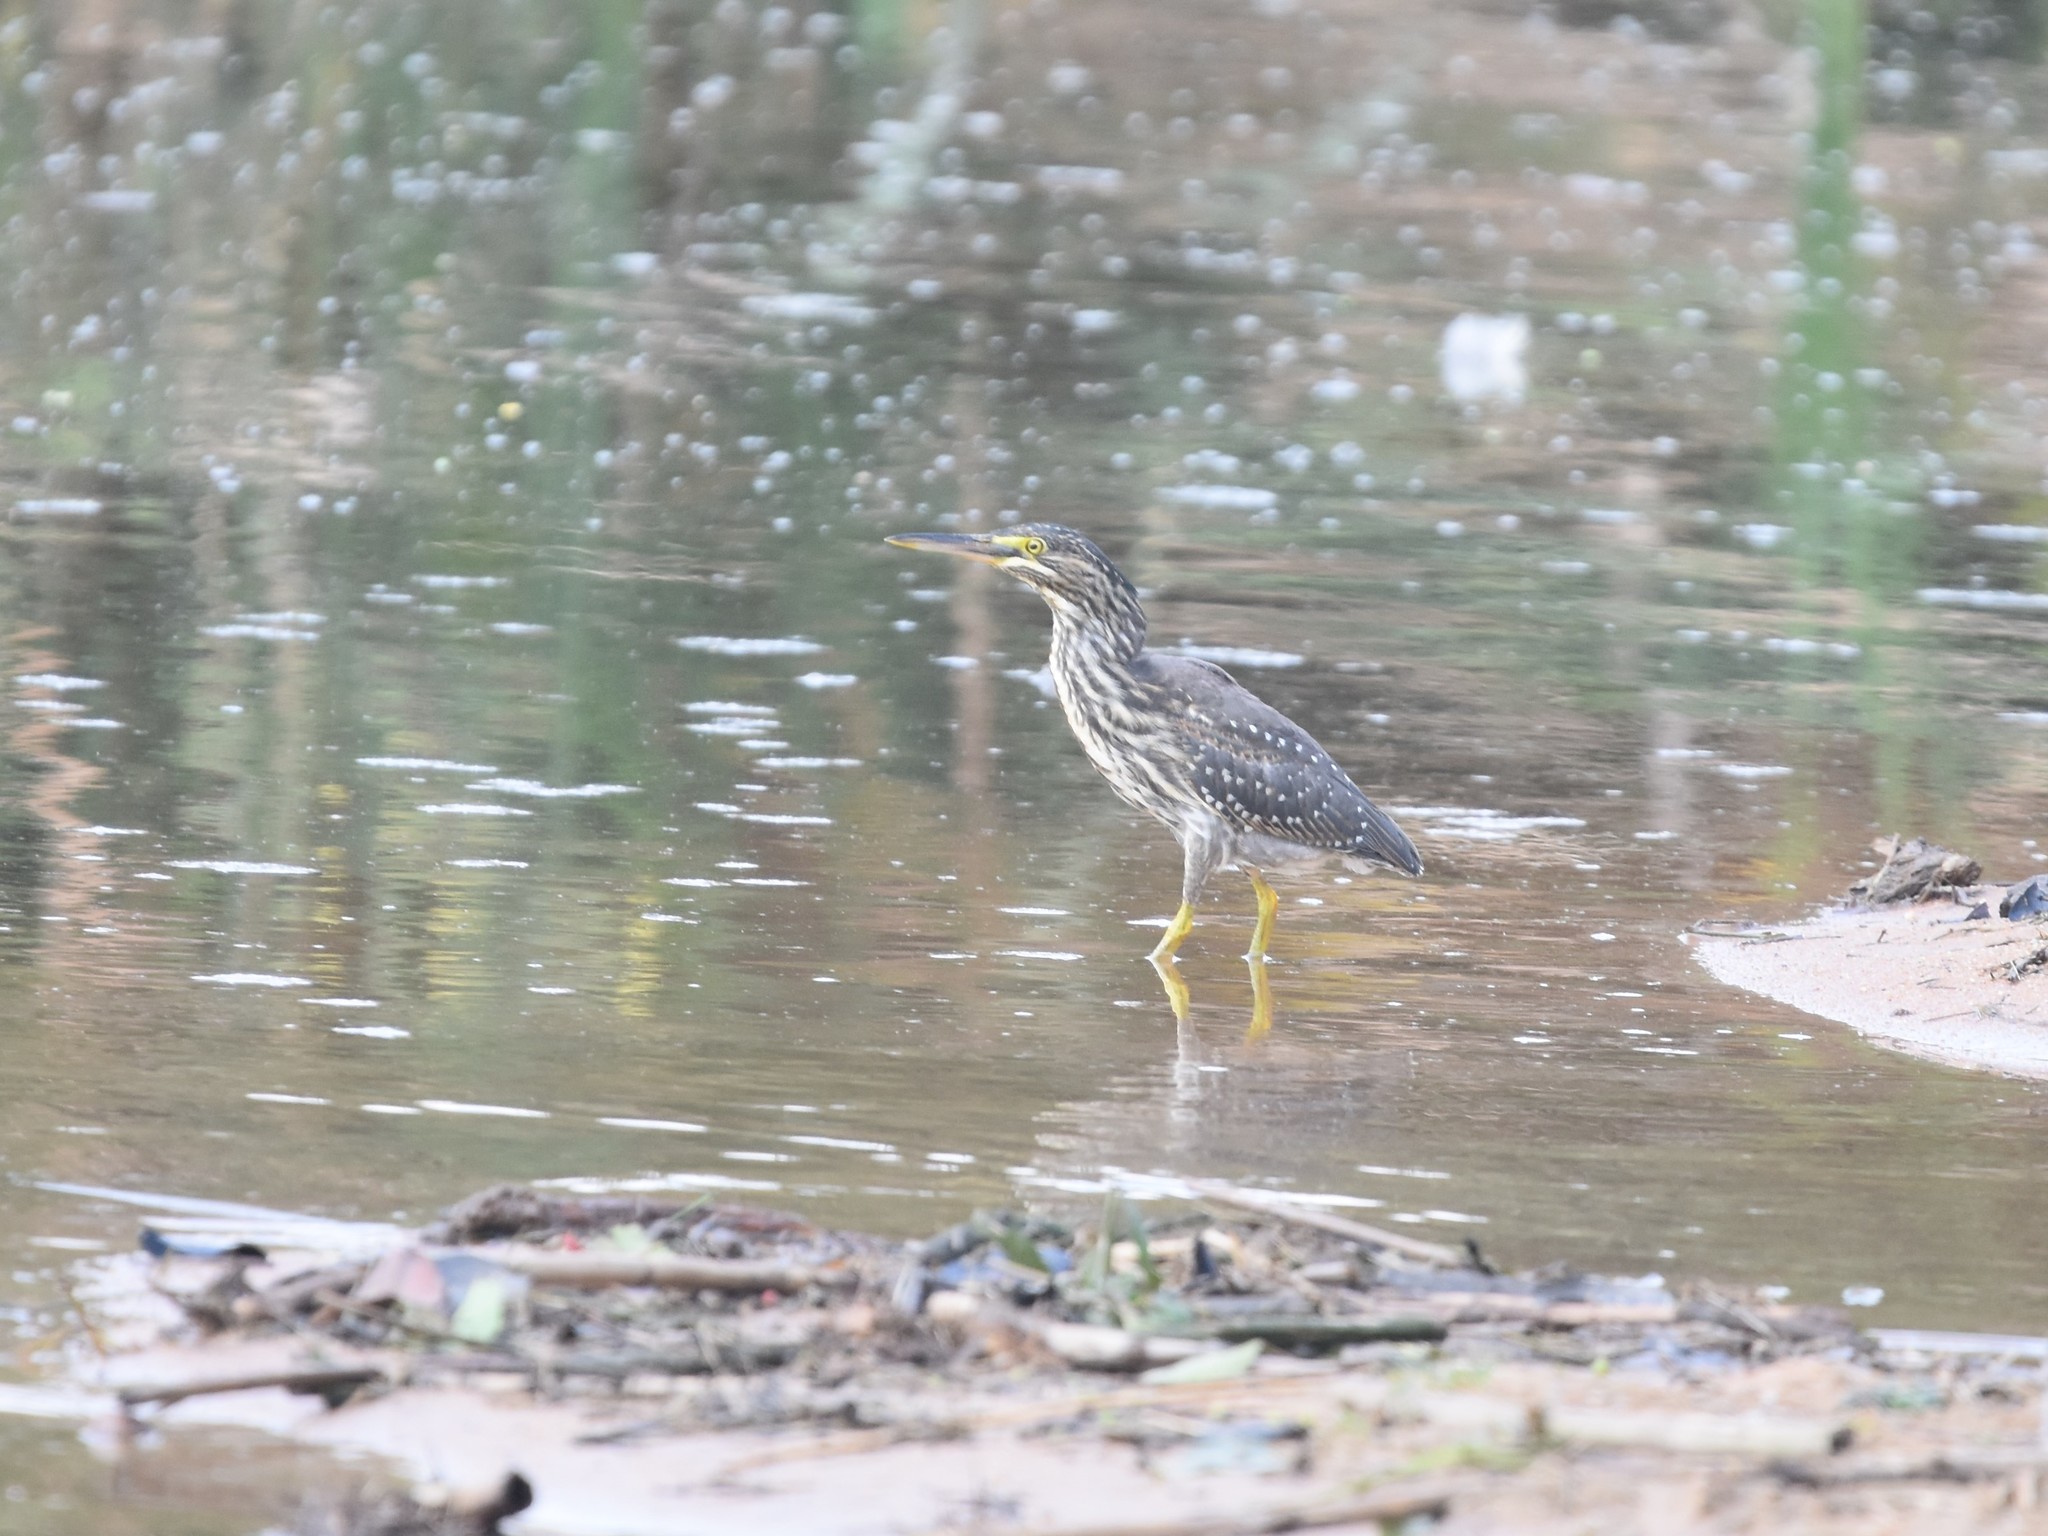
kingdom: Animalia
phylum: Chordata
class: Aves
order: Pelecaniformes
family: Ardeidae
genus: Butorides
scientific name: Butorides striata
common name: Striated heron
